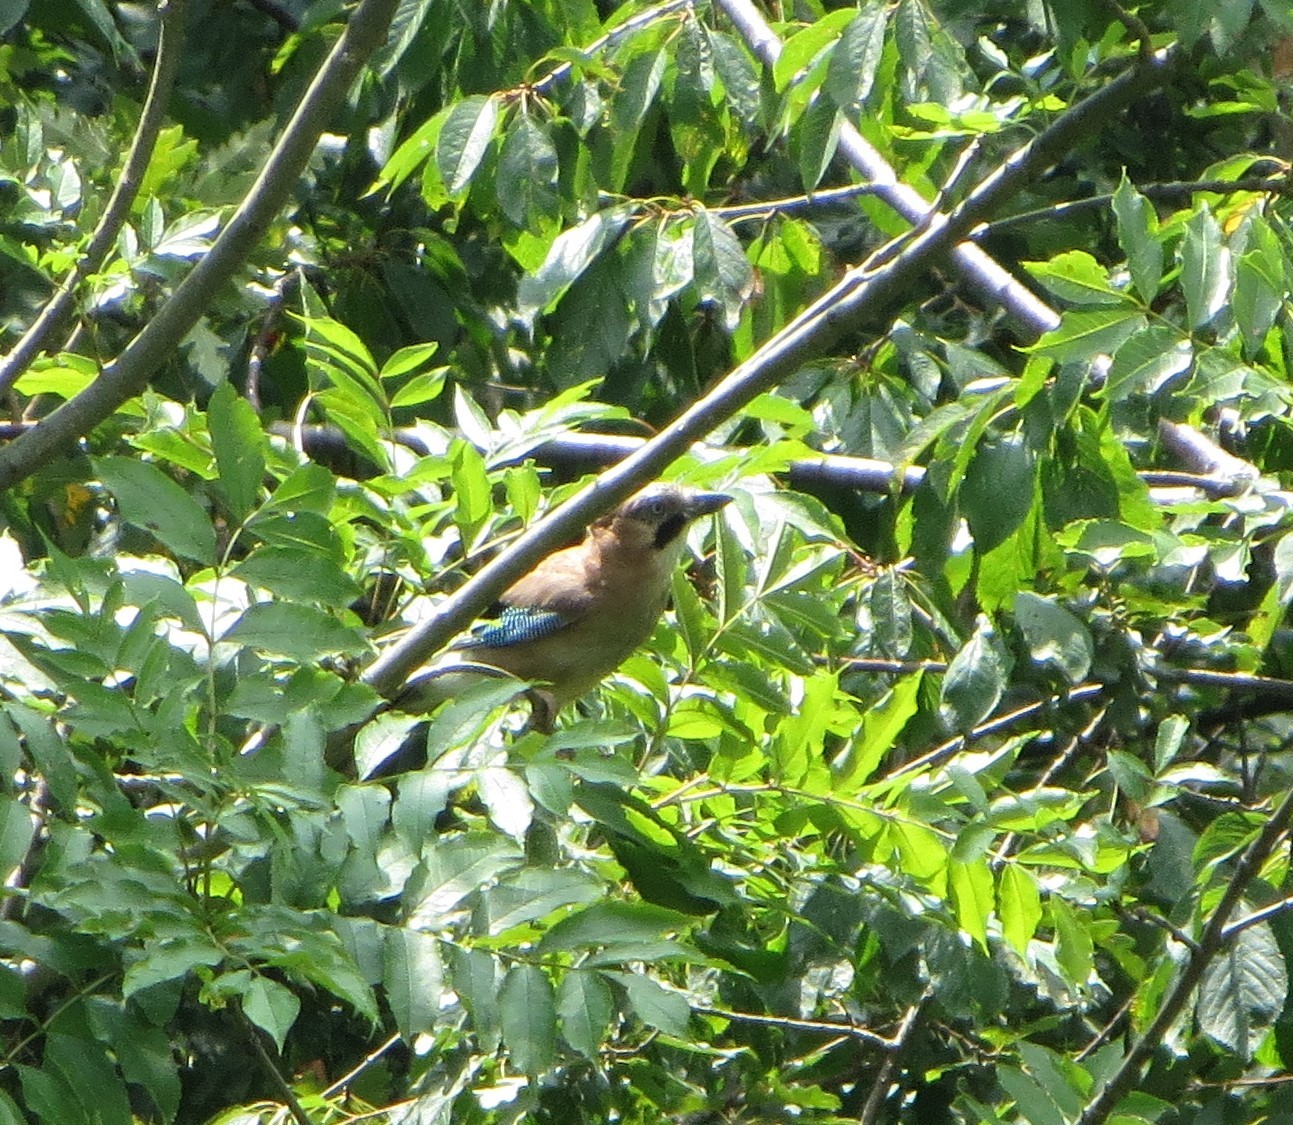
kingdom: Animalia
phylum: Chordata
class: Aves
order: Passeriformes
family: Corvidae
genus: Garrulus
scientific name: Garrulus glandarius
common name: Eurasian jay
